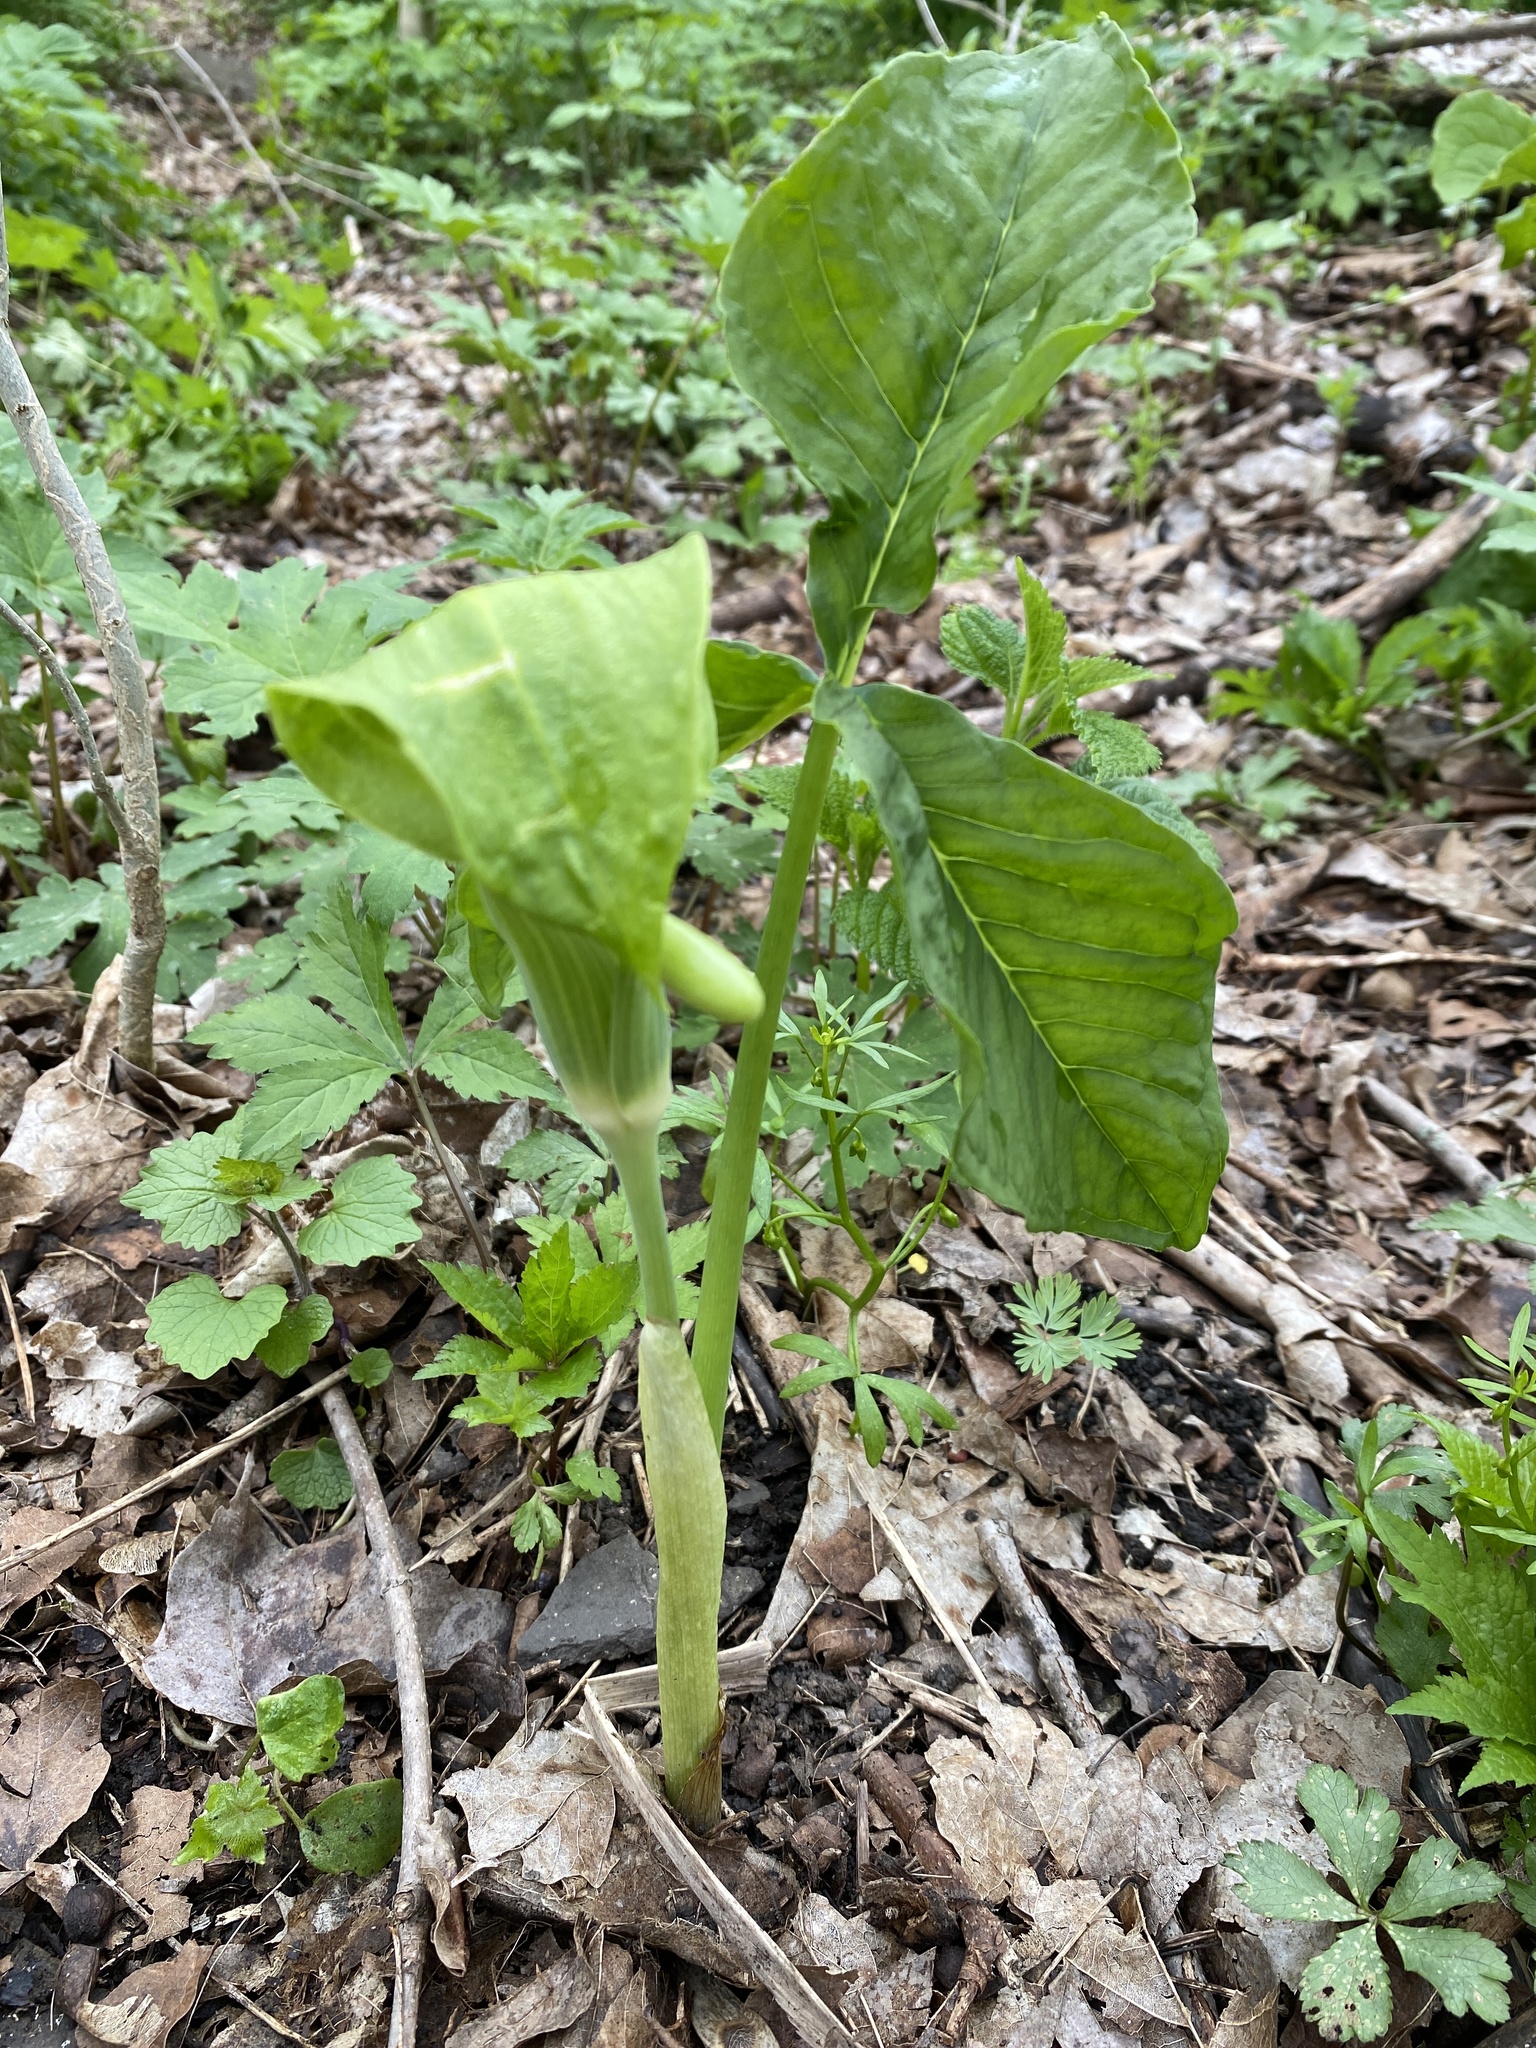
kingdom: Plantae
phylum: Tracheophyta
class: Liliopsida
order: Alismatales
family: Araceae
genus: Arisaema
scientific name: Arisaema triphyllum
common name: Jack-in-the-pulpit
